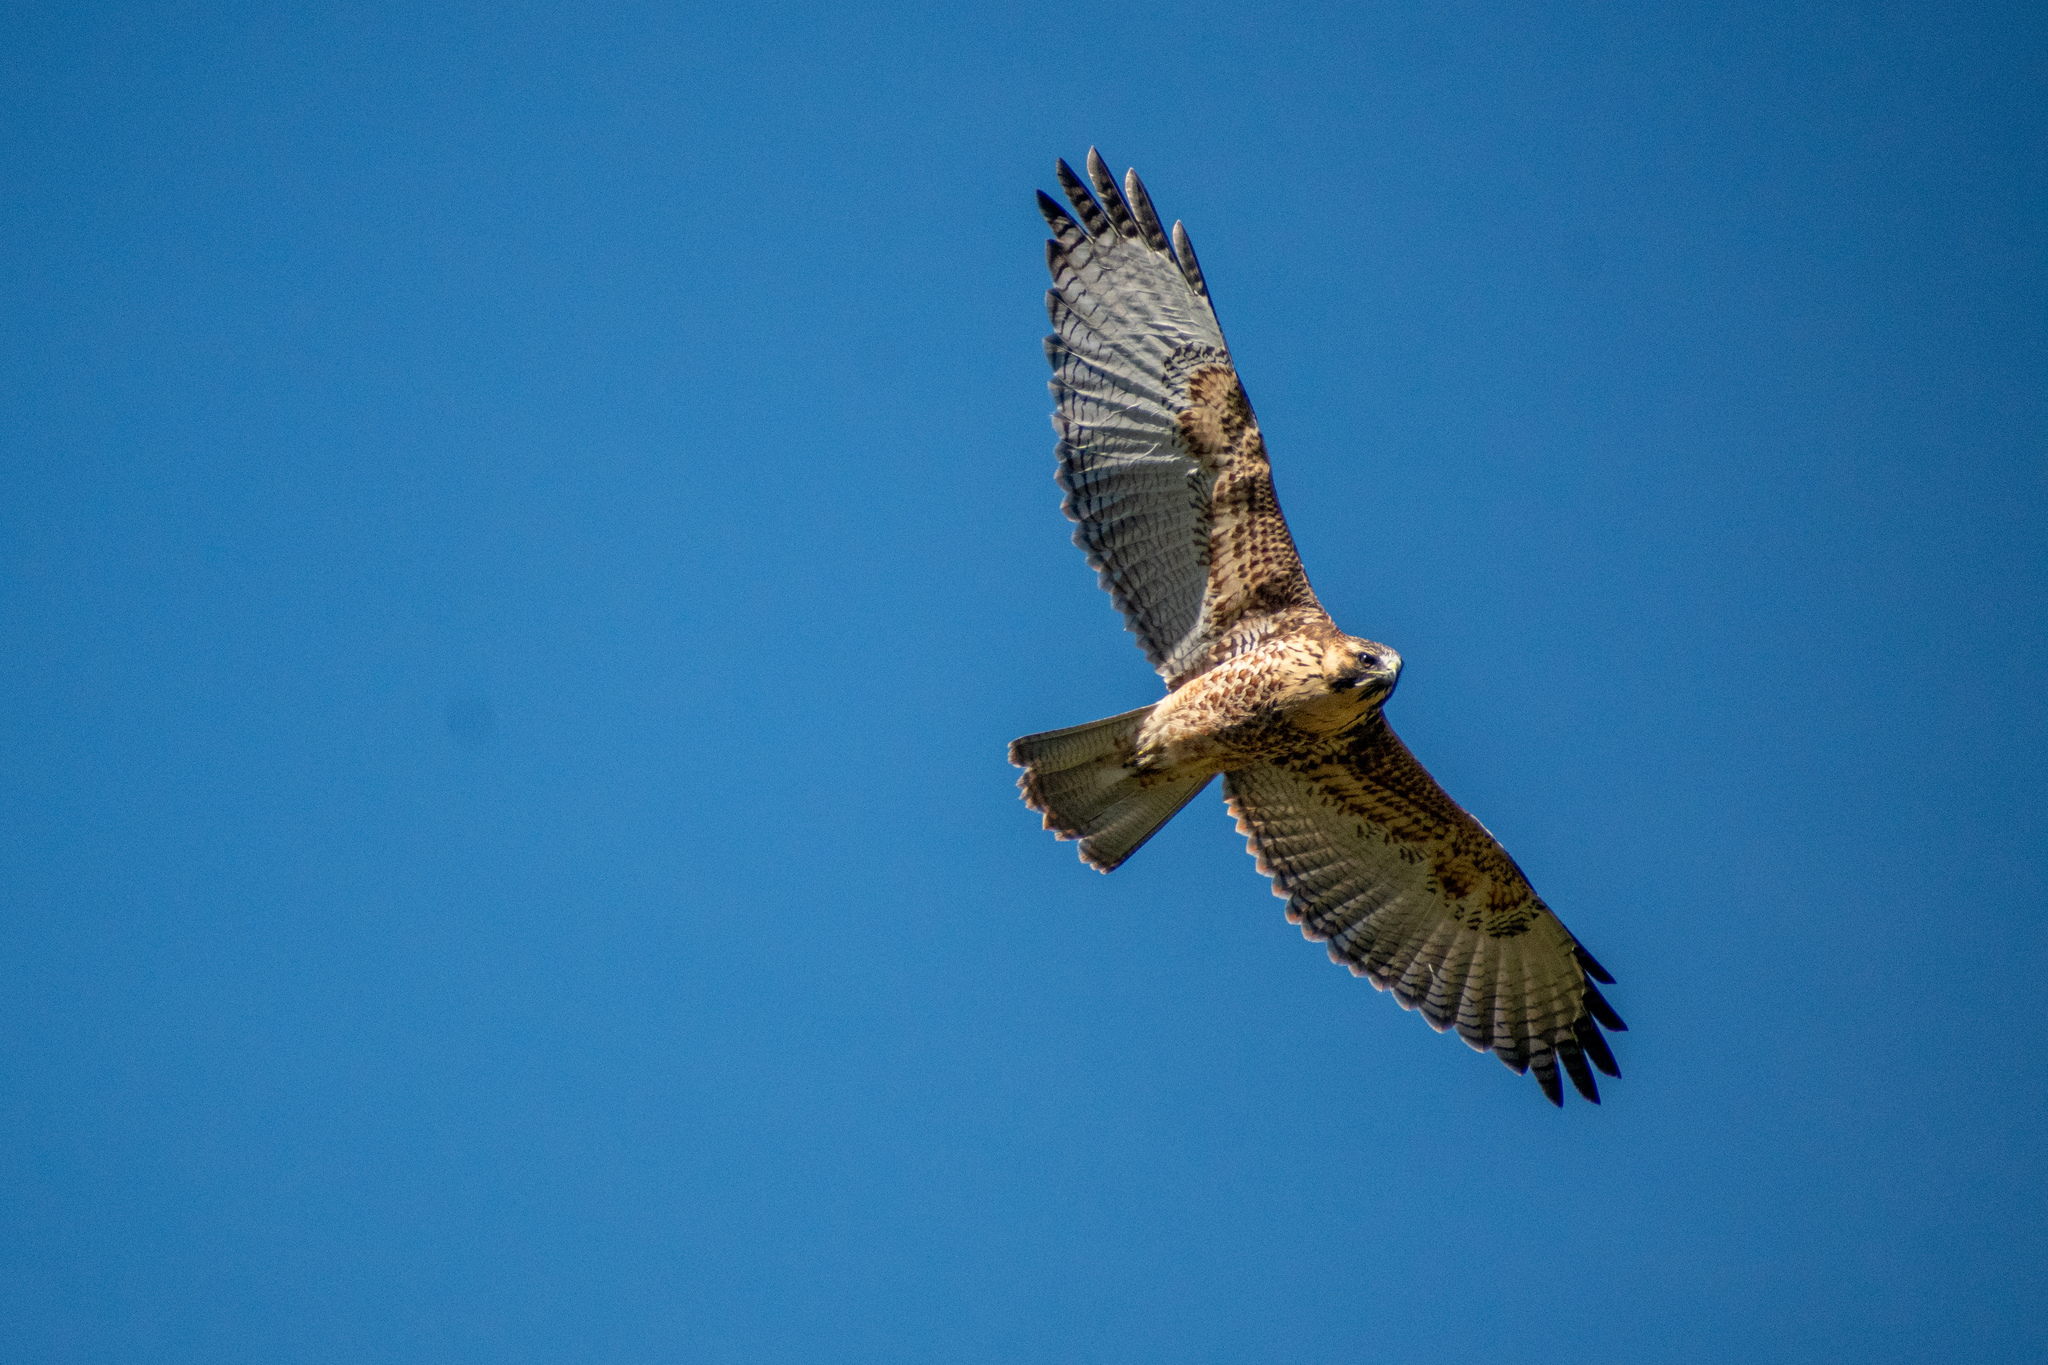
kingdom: Animalia
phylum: Chordata
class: Aves
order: Accipitriformes
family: Accipitridae
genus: Buteo
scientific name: Buteo polyosoma
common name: Variable hawk
